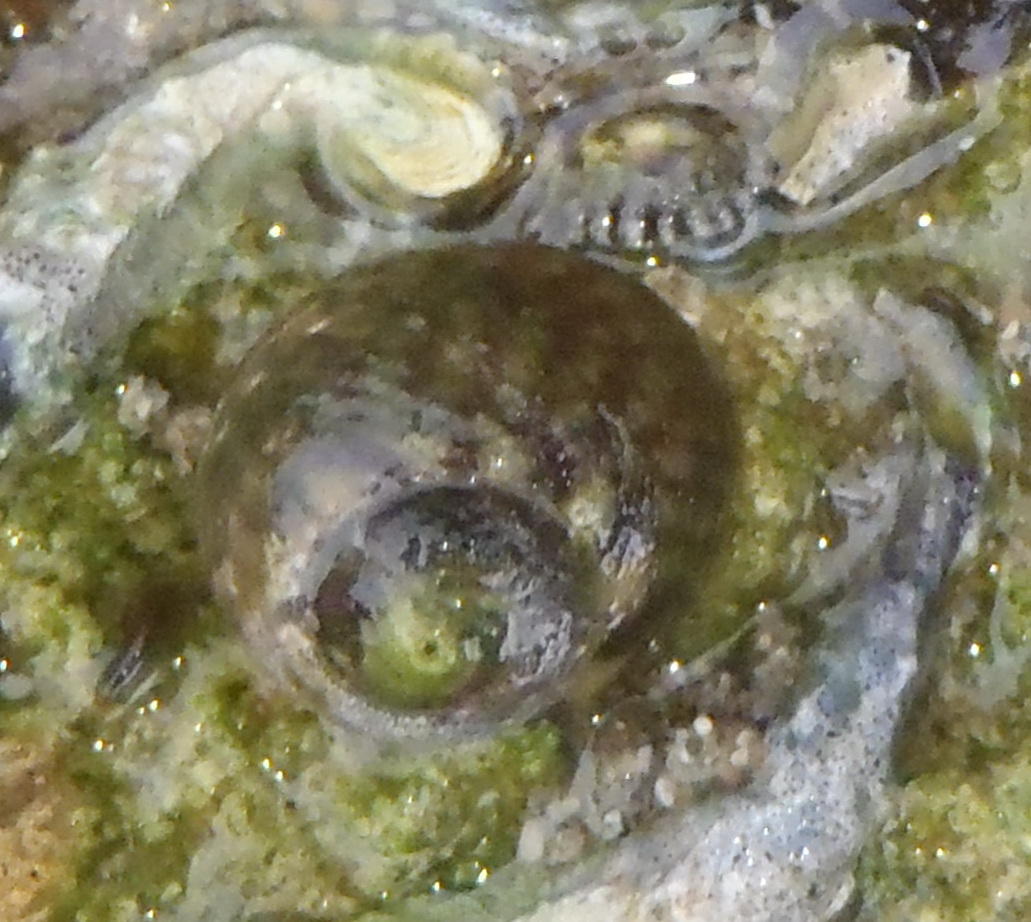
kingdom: Animalia
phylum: Mollusca
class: Gastropoda
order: Trochida
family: Trochidae
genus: Oxystele
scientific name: Oxystele antoni
